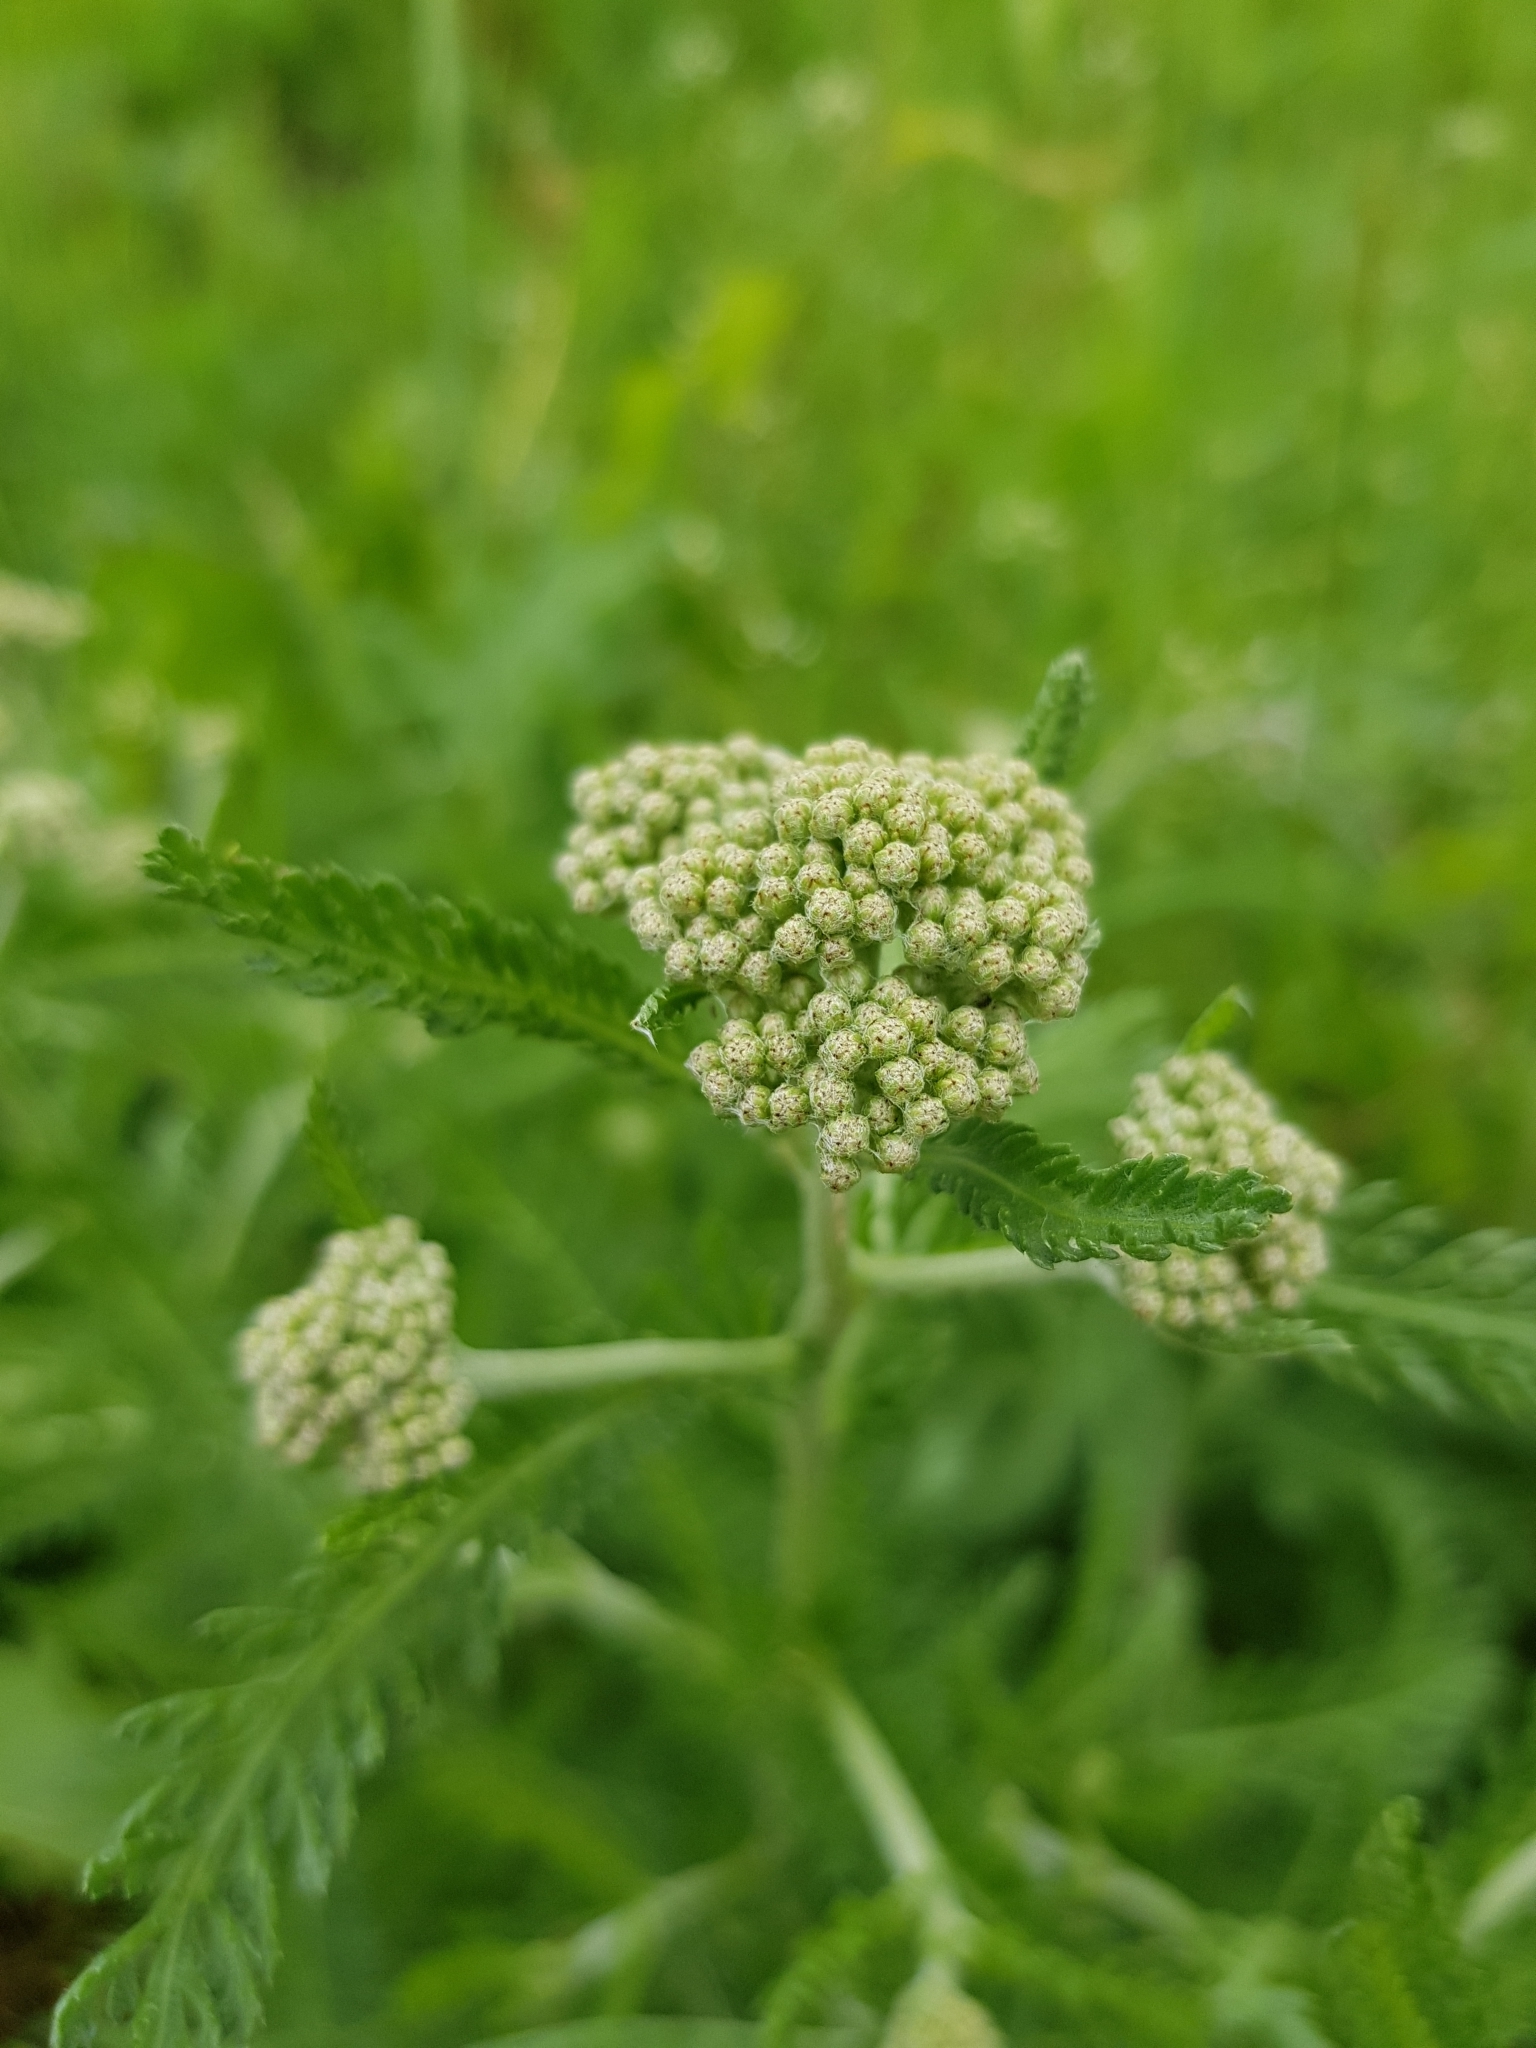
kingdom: Plantae
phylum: Tracheophyta
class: Magnoliopsida
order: Asterales
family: Asteraceae
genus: Achillea
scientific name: Achillea millefolium
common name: Yarrow
